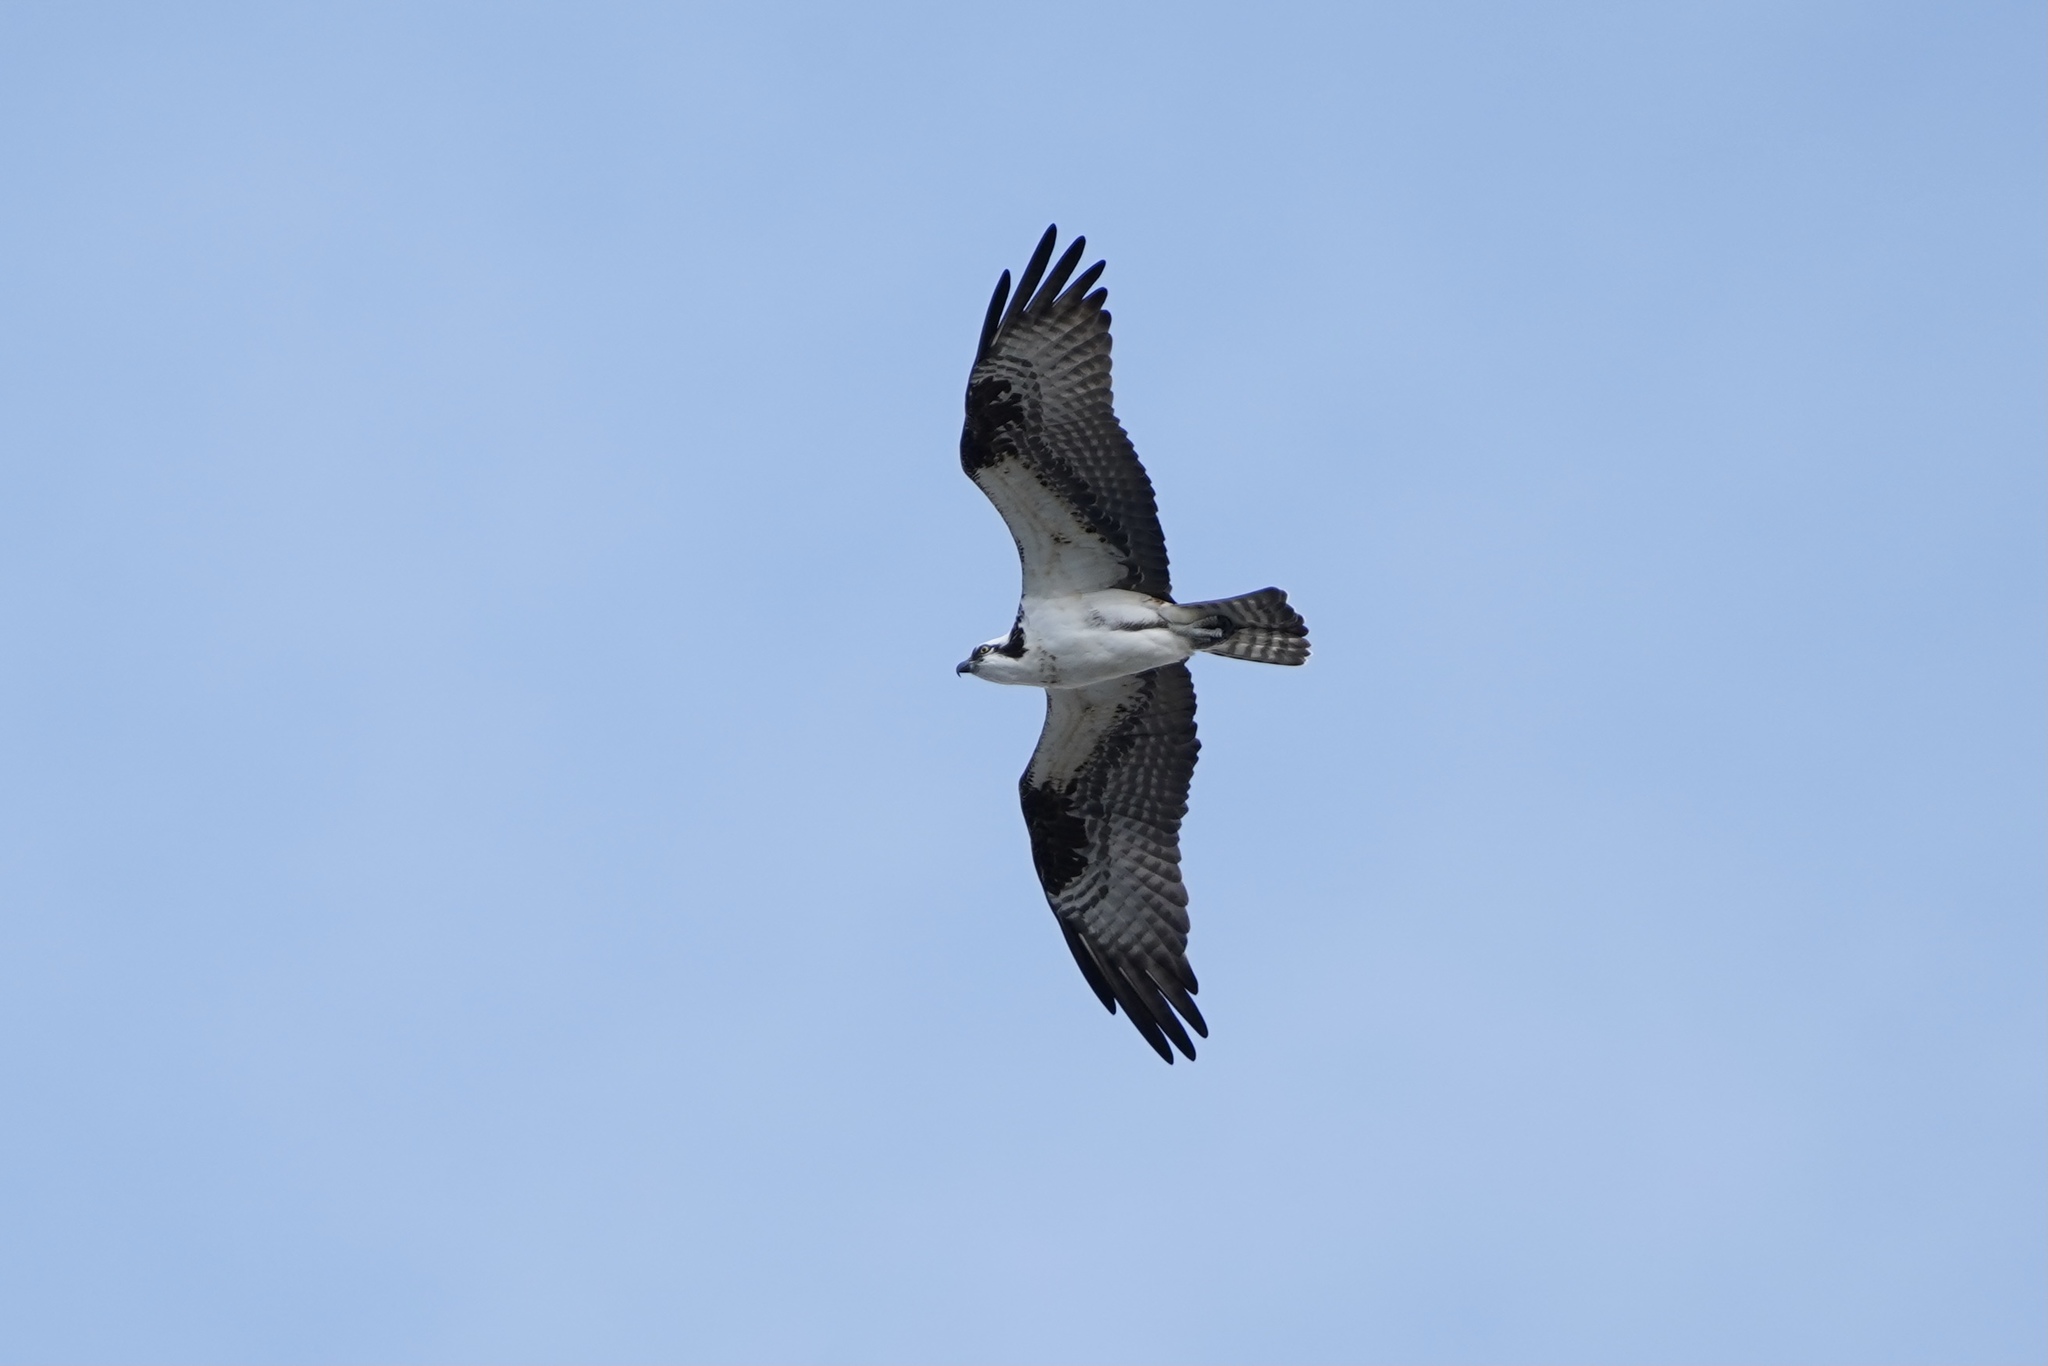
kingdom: Animalia
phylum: Chordata
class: Aves
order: Accipitriformes
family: Pandionidae
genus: Pandion
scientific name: Pandion haliaetus
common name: Osprey
